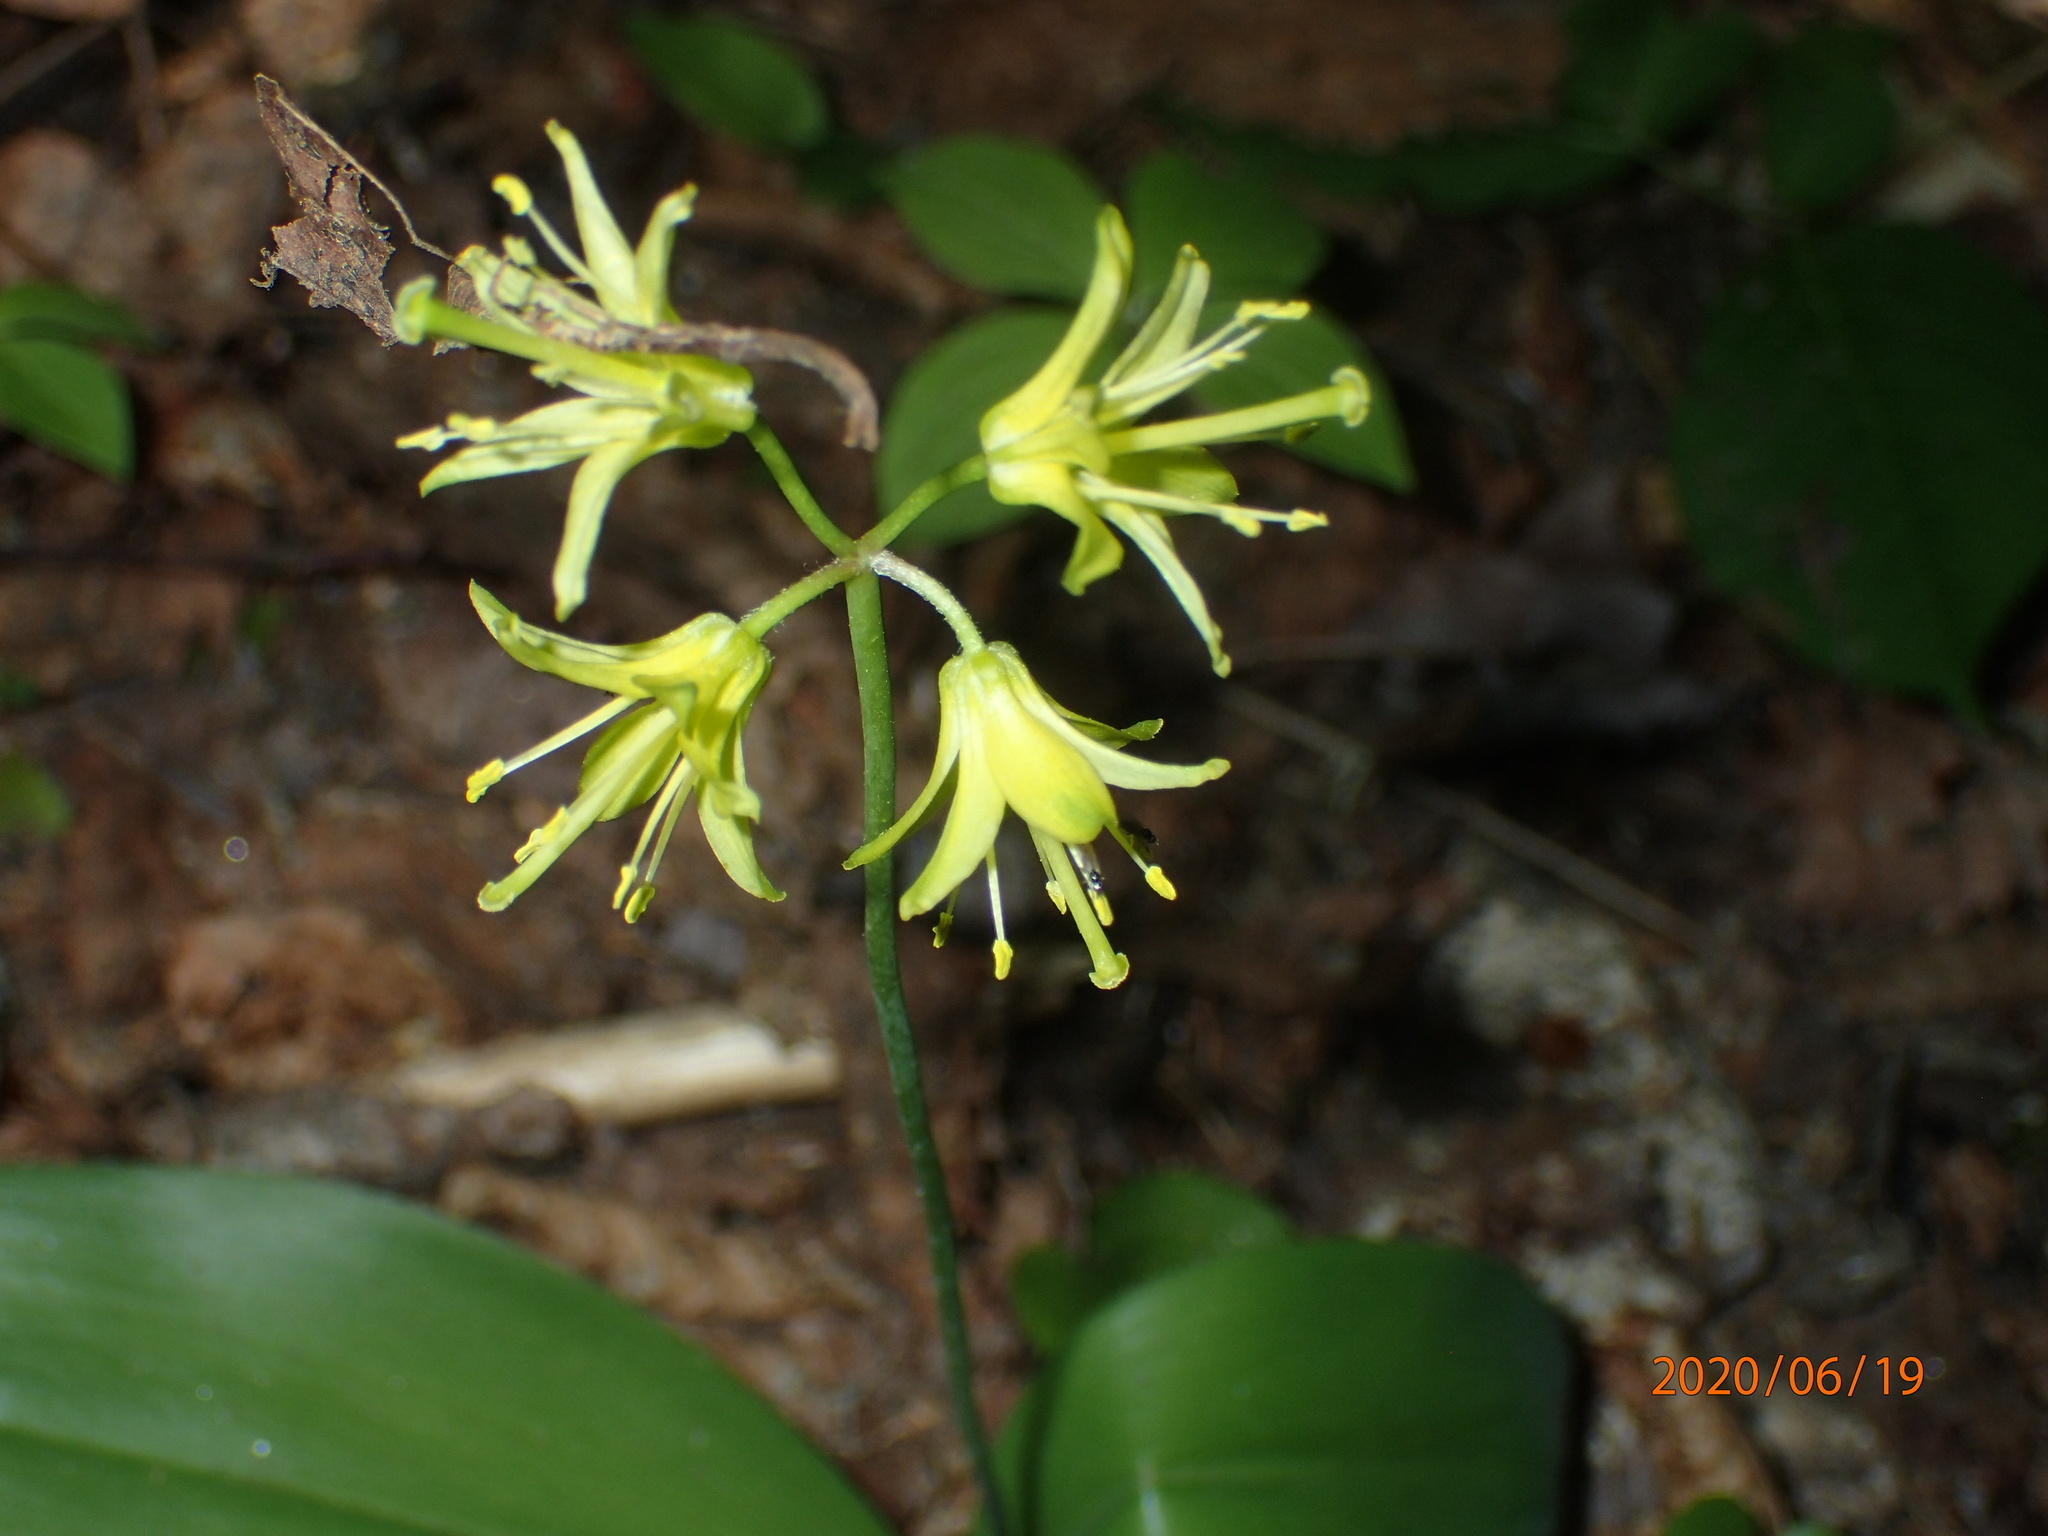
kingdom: Plantae
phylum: Tracheophyta
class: Liliopsida
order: Liliales
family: Liliaceae
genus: Clintonia
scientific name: Clintonia borealis
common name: Yellow clintonia
